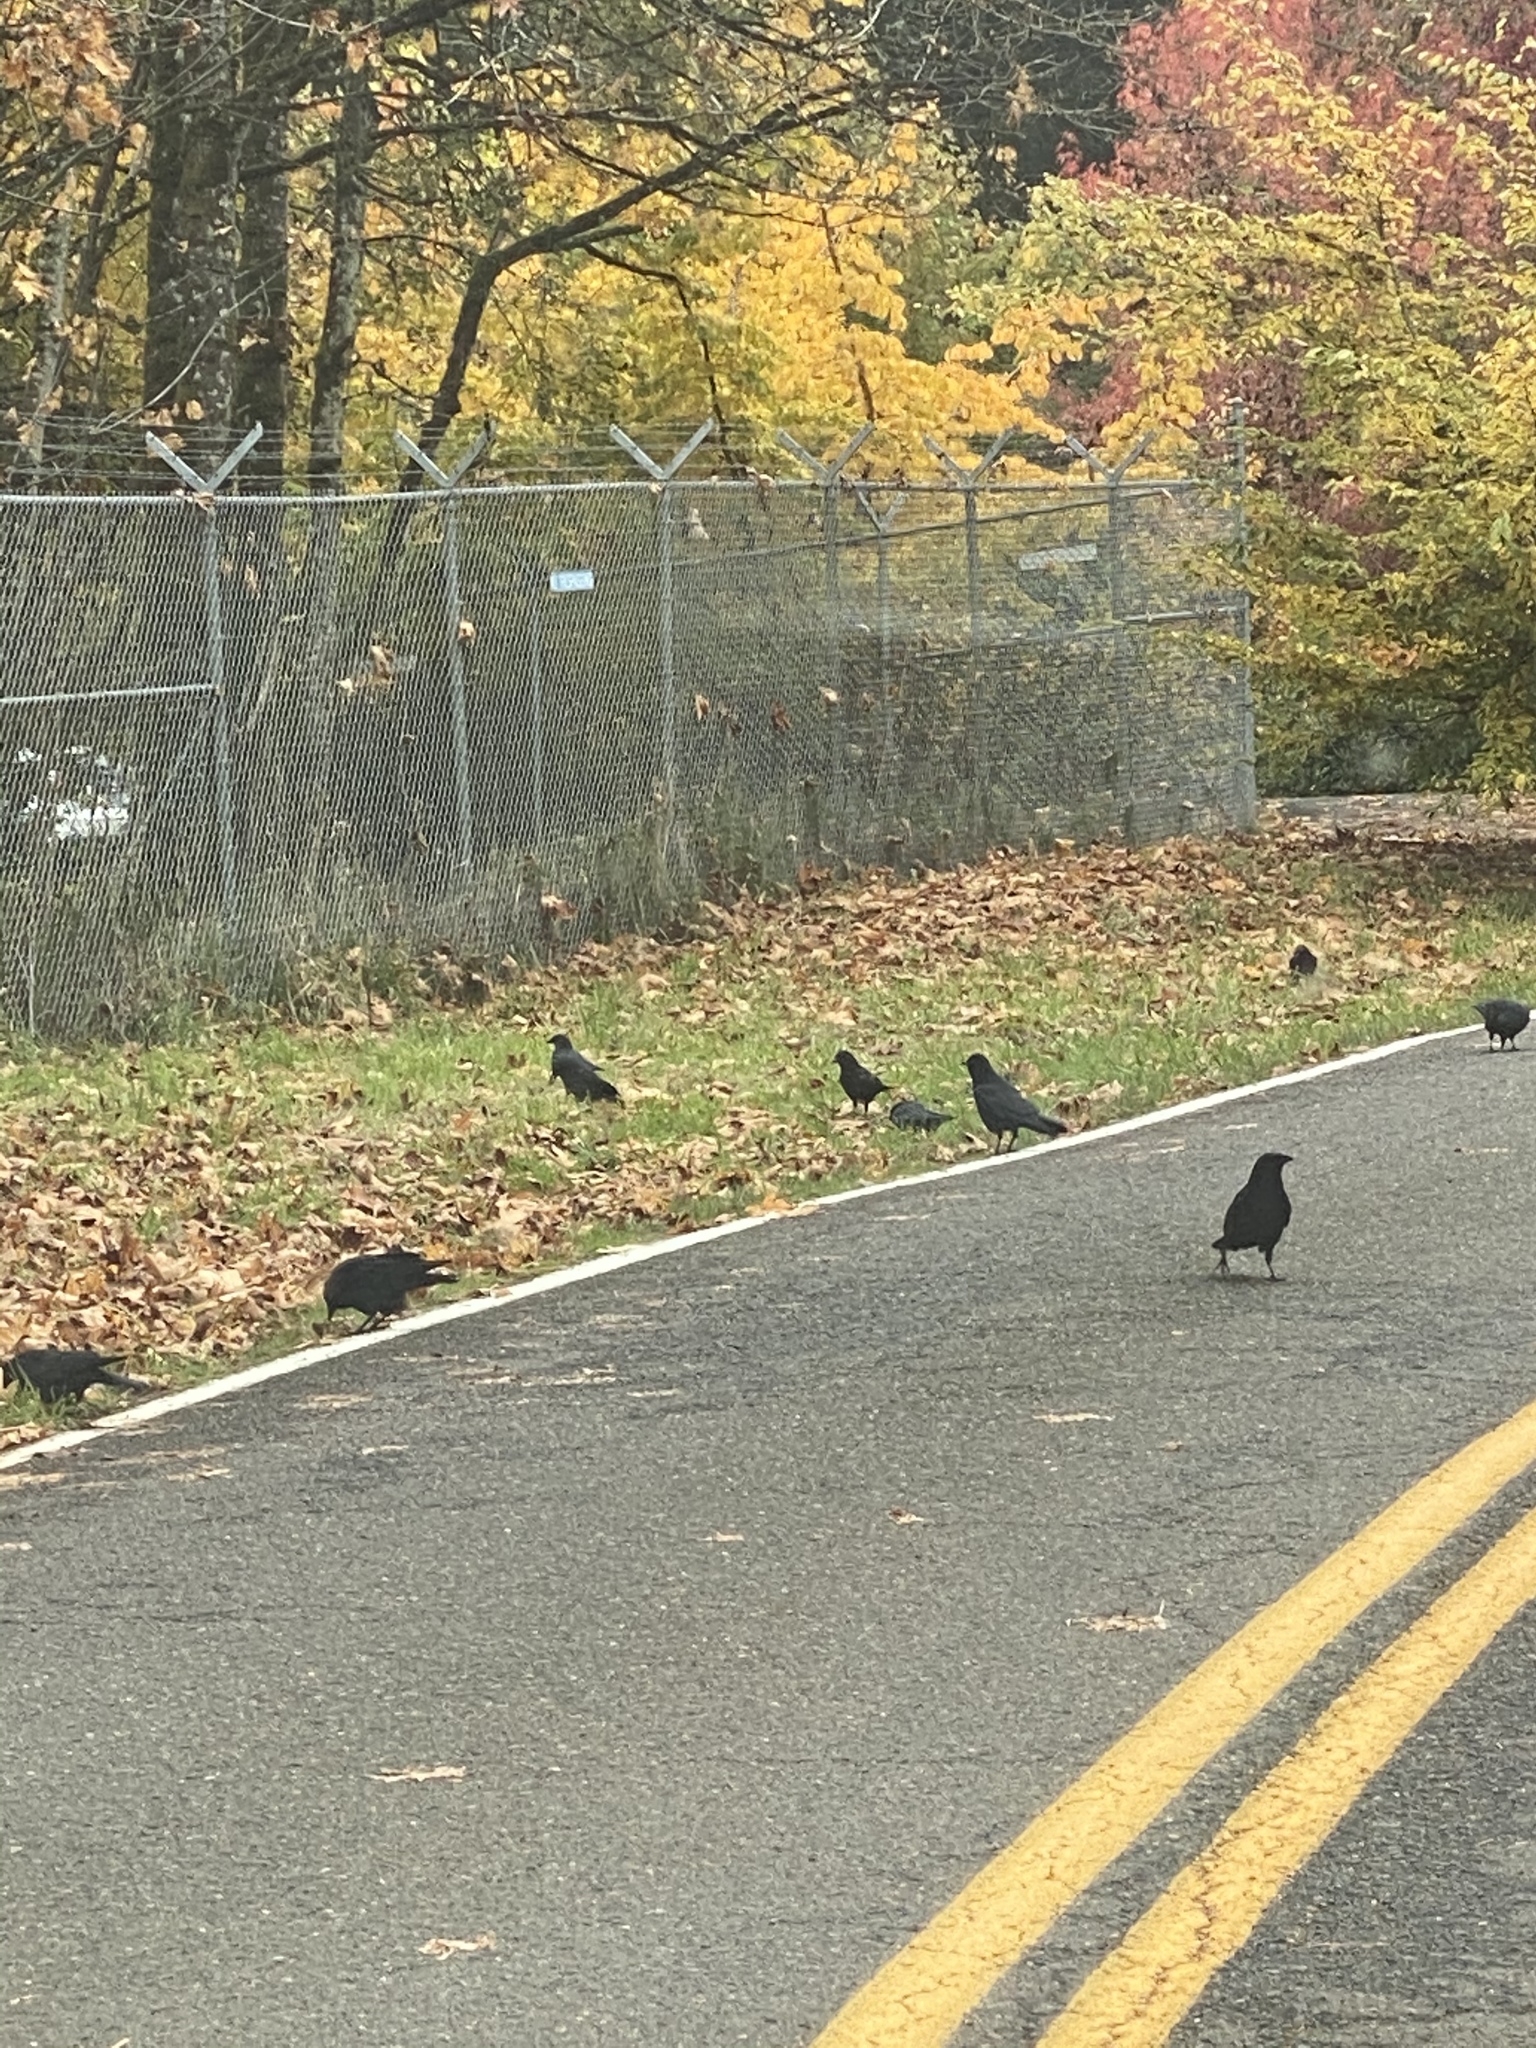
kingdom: Animalia
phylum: Chordata
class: Aves
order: Passeriformes
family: Corvidae
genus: Corvus
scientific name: Corvus brachyrhynchos
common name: American crow
